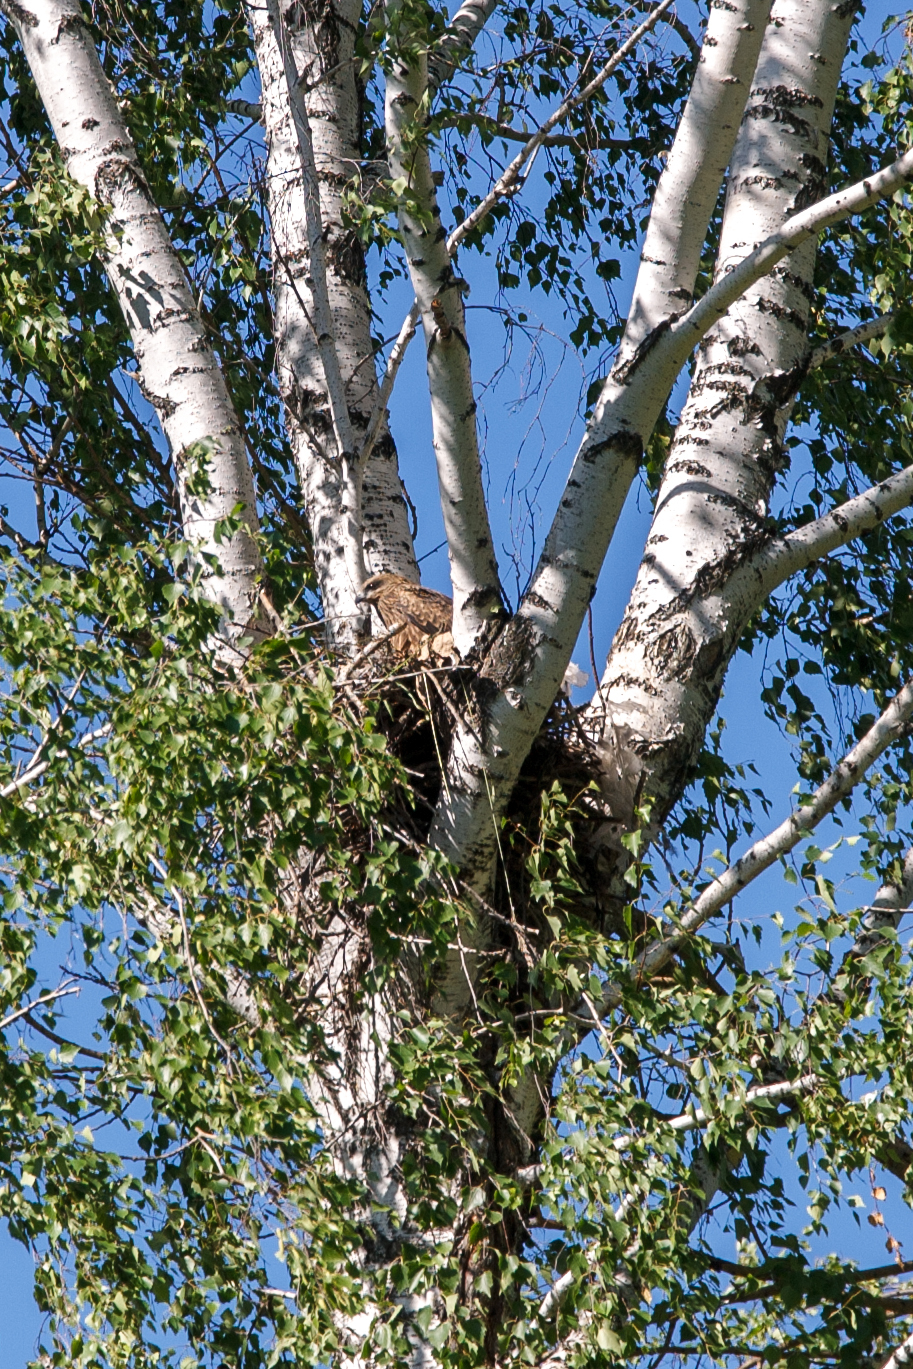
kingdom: Animalia
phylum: Chordata
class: Aves
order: Accipitriformes
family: Accipitridae
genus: Milvus
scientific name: Milvus migrans
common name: Black kite
